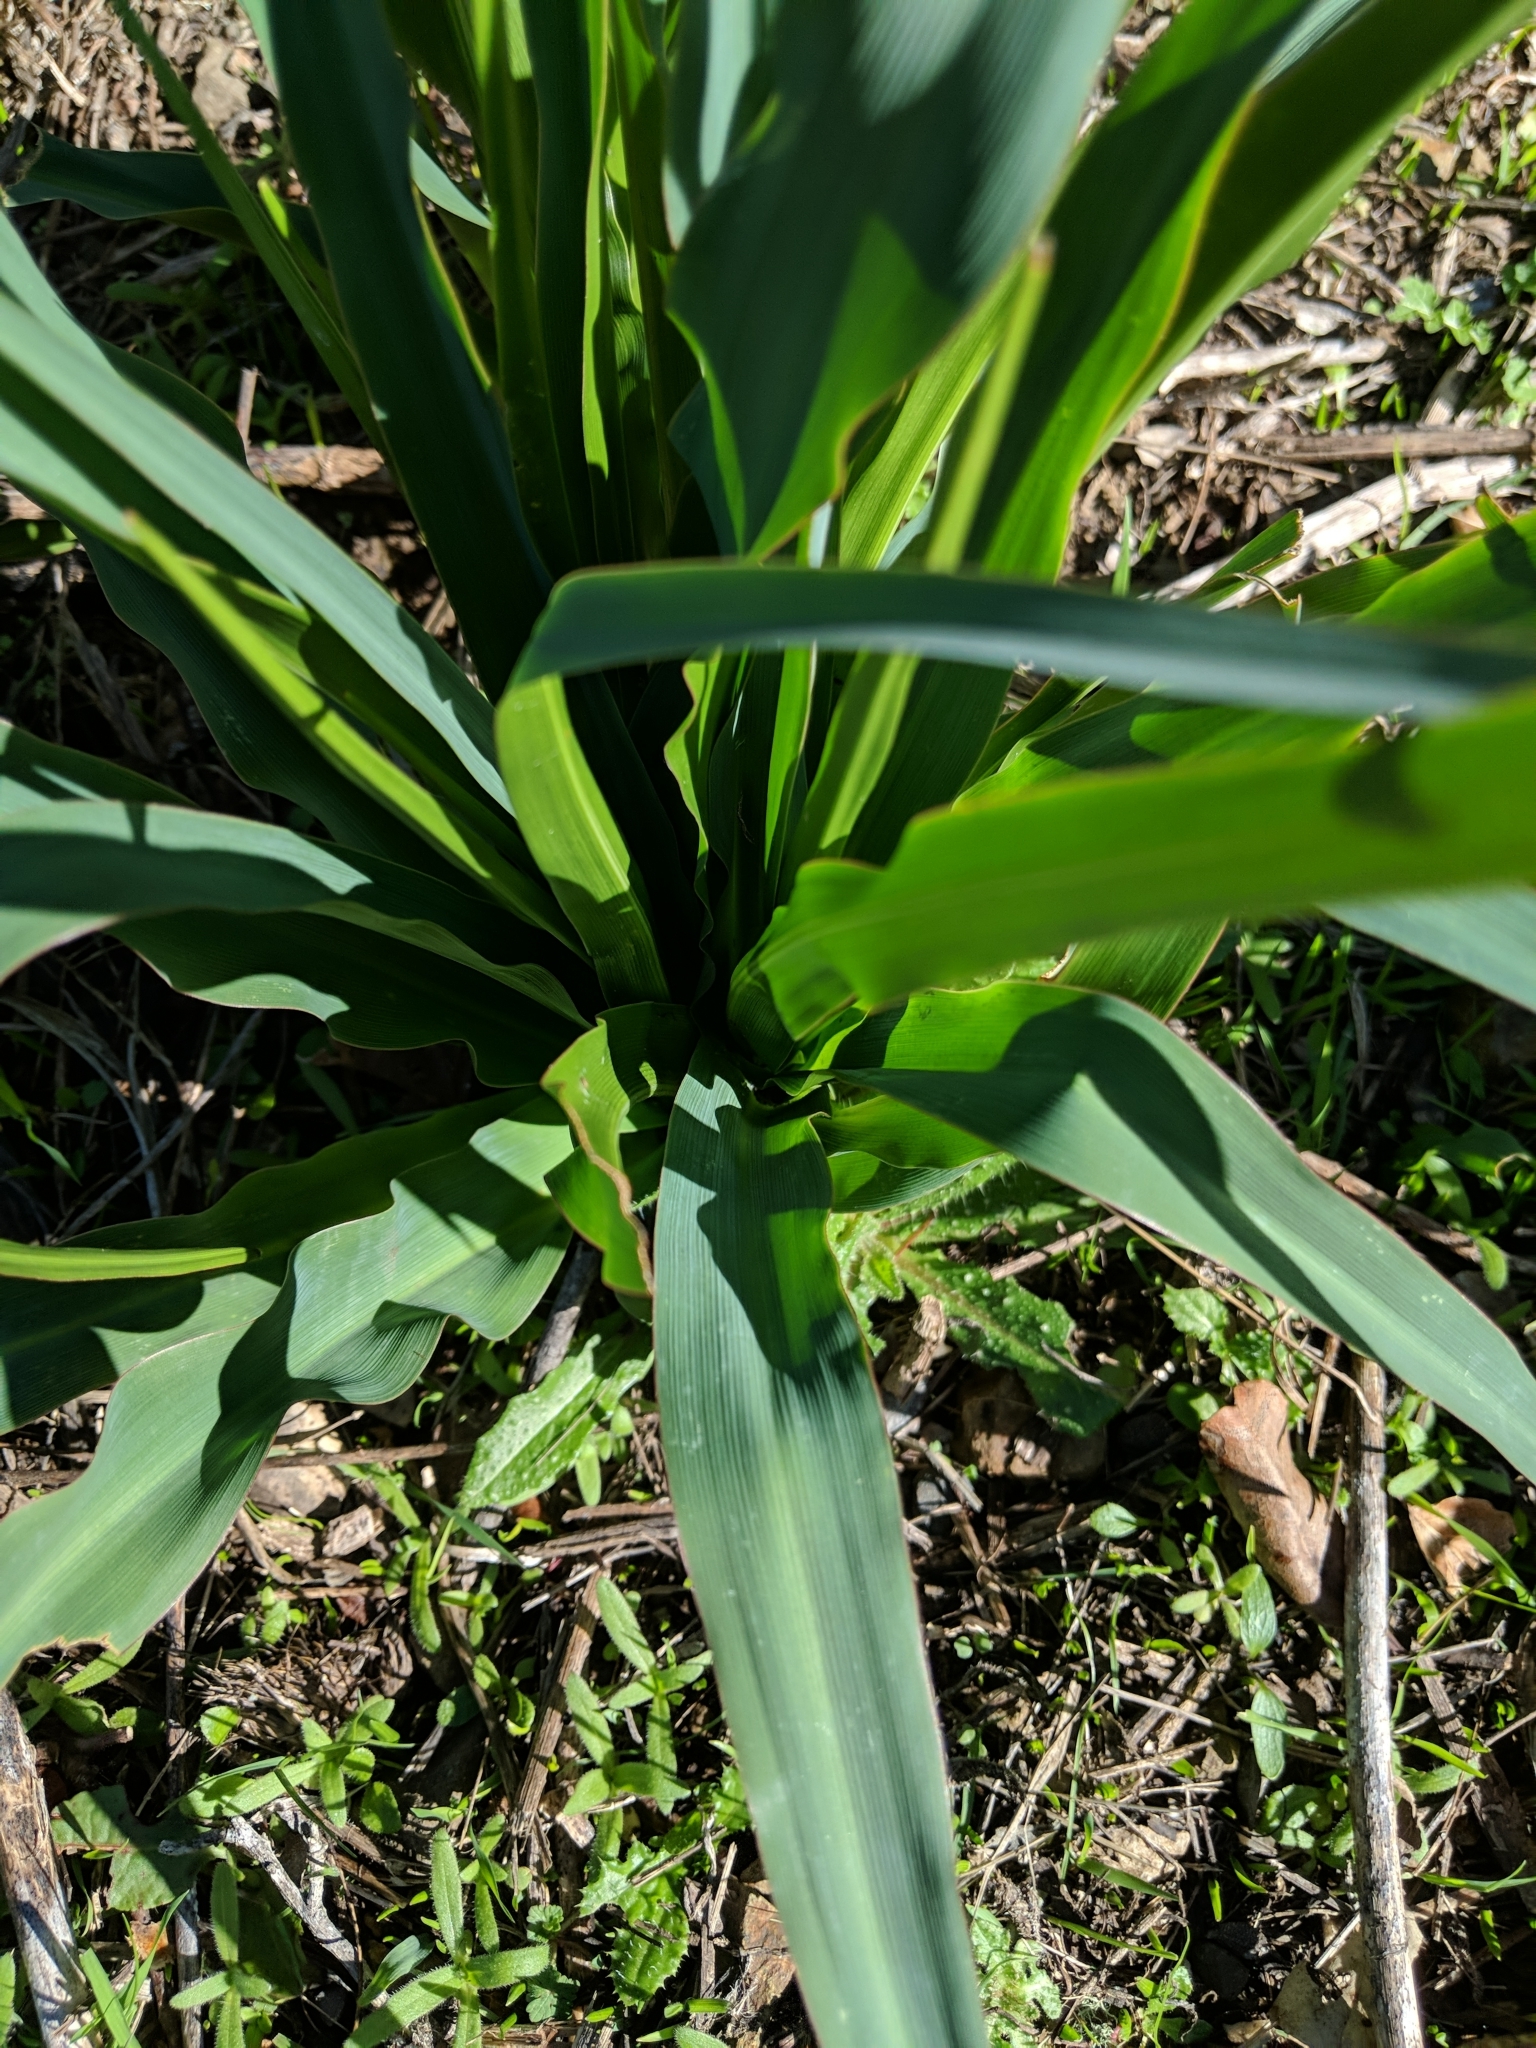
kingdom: Plantae
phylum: Tracheophyta
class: Liliopsida
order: Asparagales
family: Asparagaceae
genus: Chlorogalum
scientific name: Chlorogalum pomeridianum
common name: Amole
